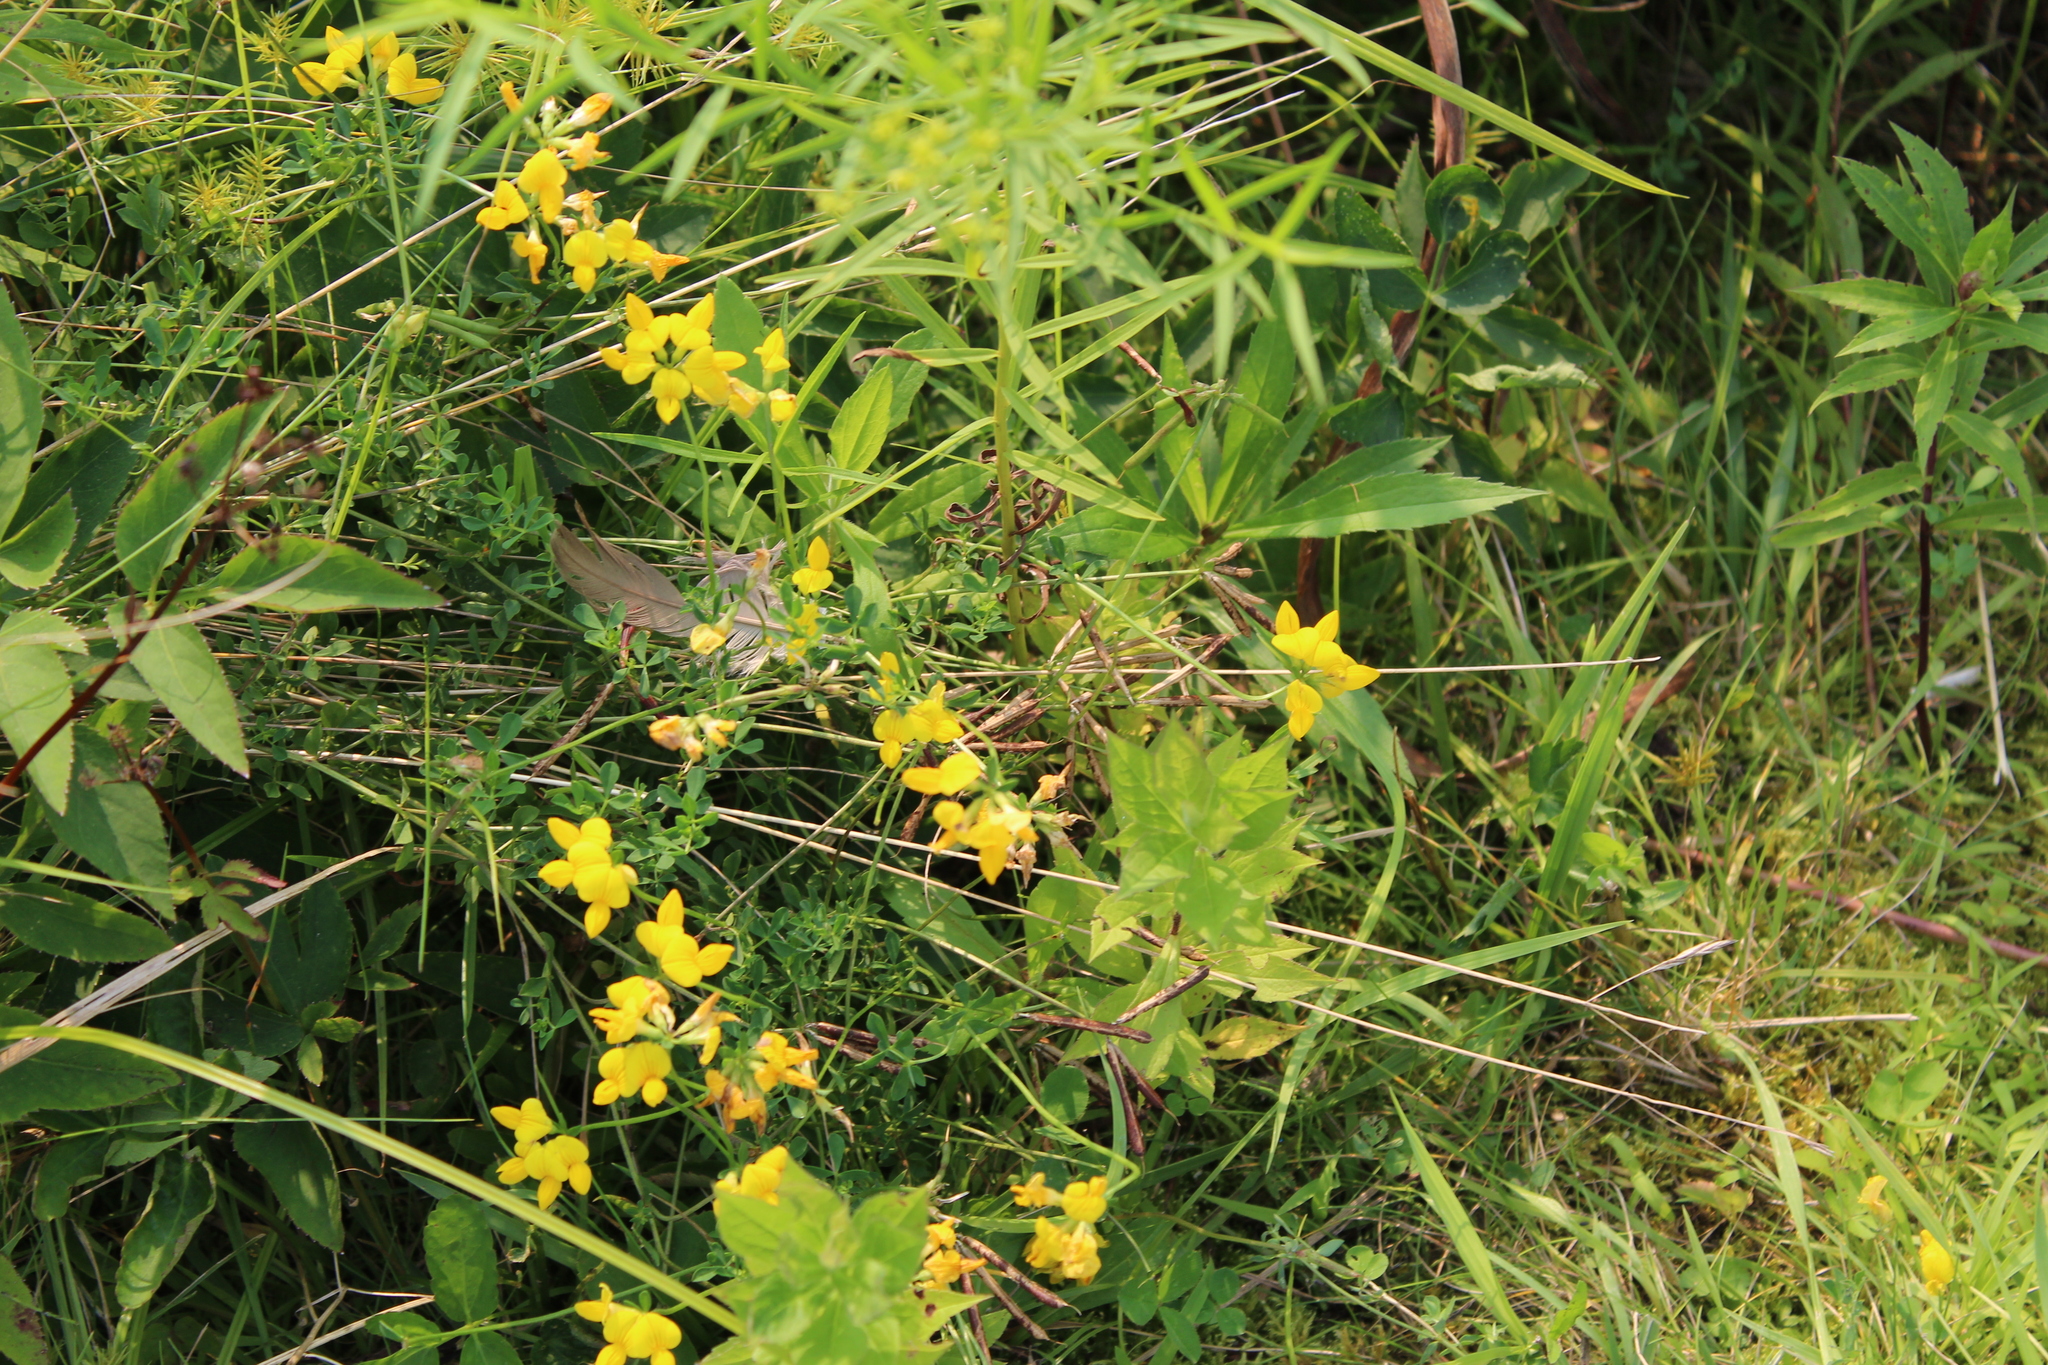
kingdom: Plantae
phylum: Tracheophyta
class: Magnoliopsida
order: Fabales
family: Fabaceae
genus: Lotus
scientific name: Lotus corniculatus
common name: Common bird's-foot-trefoil
